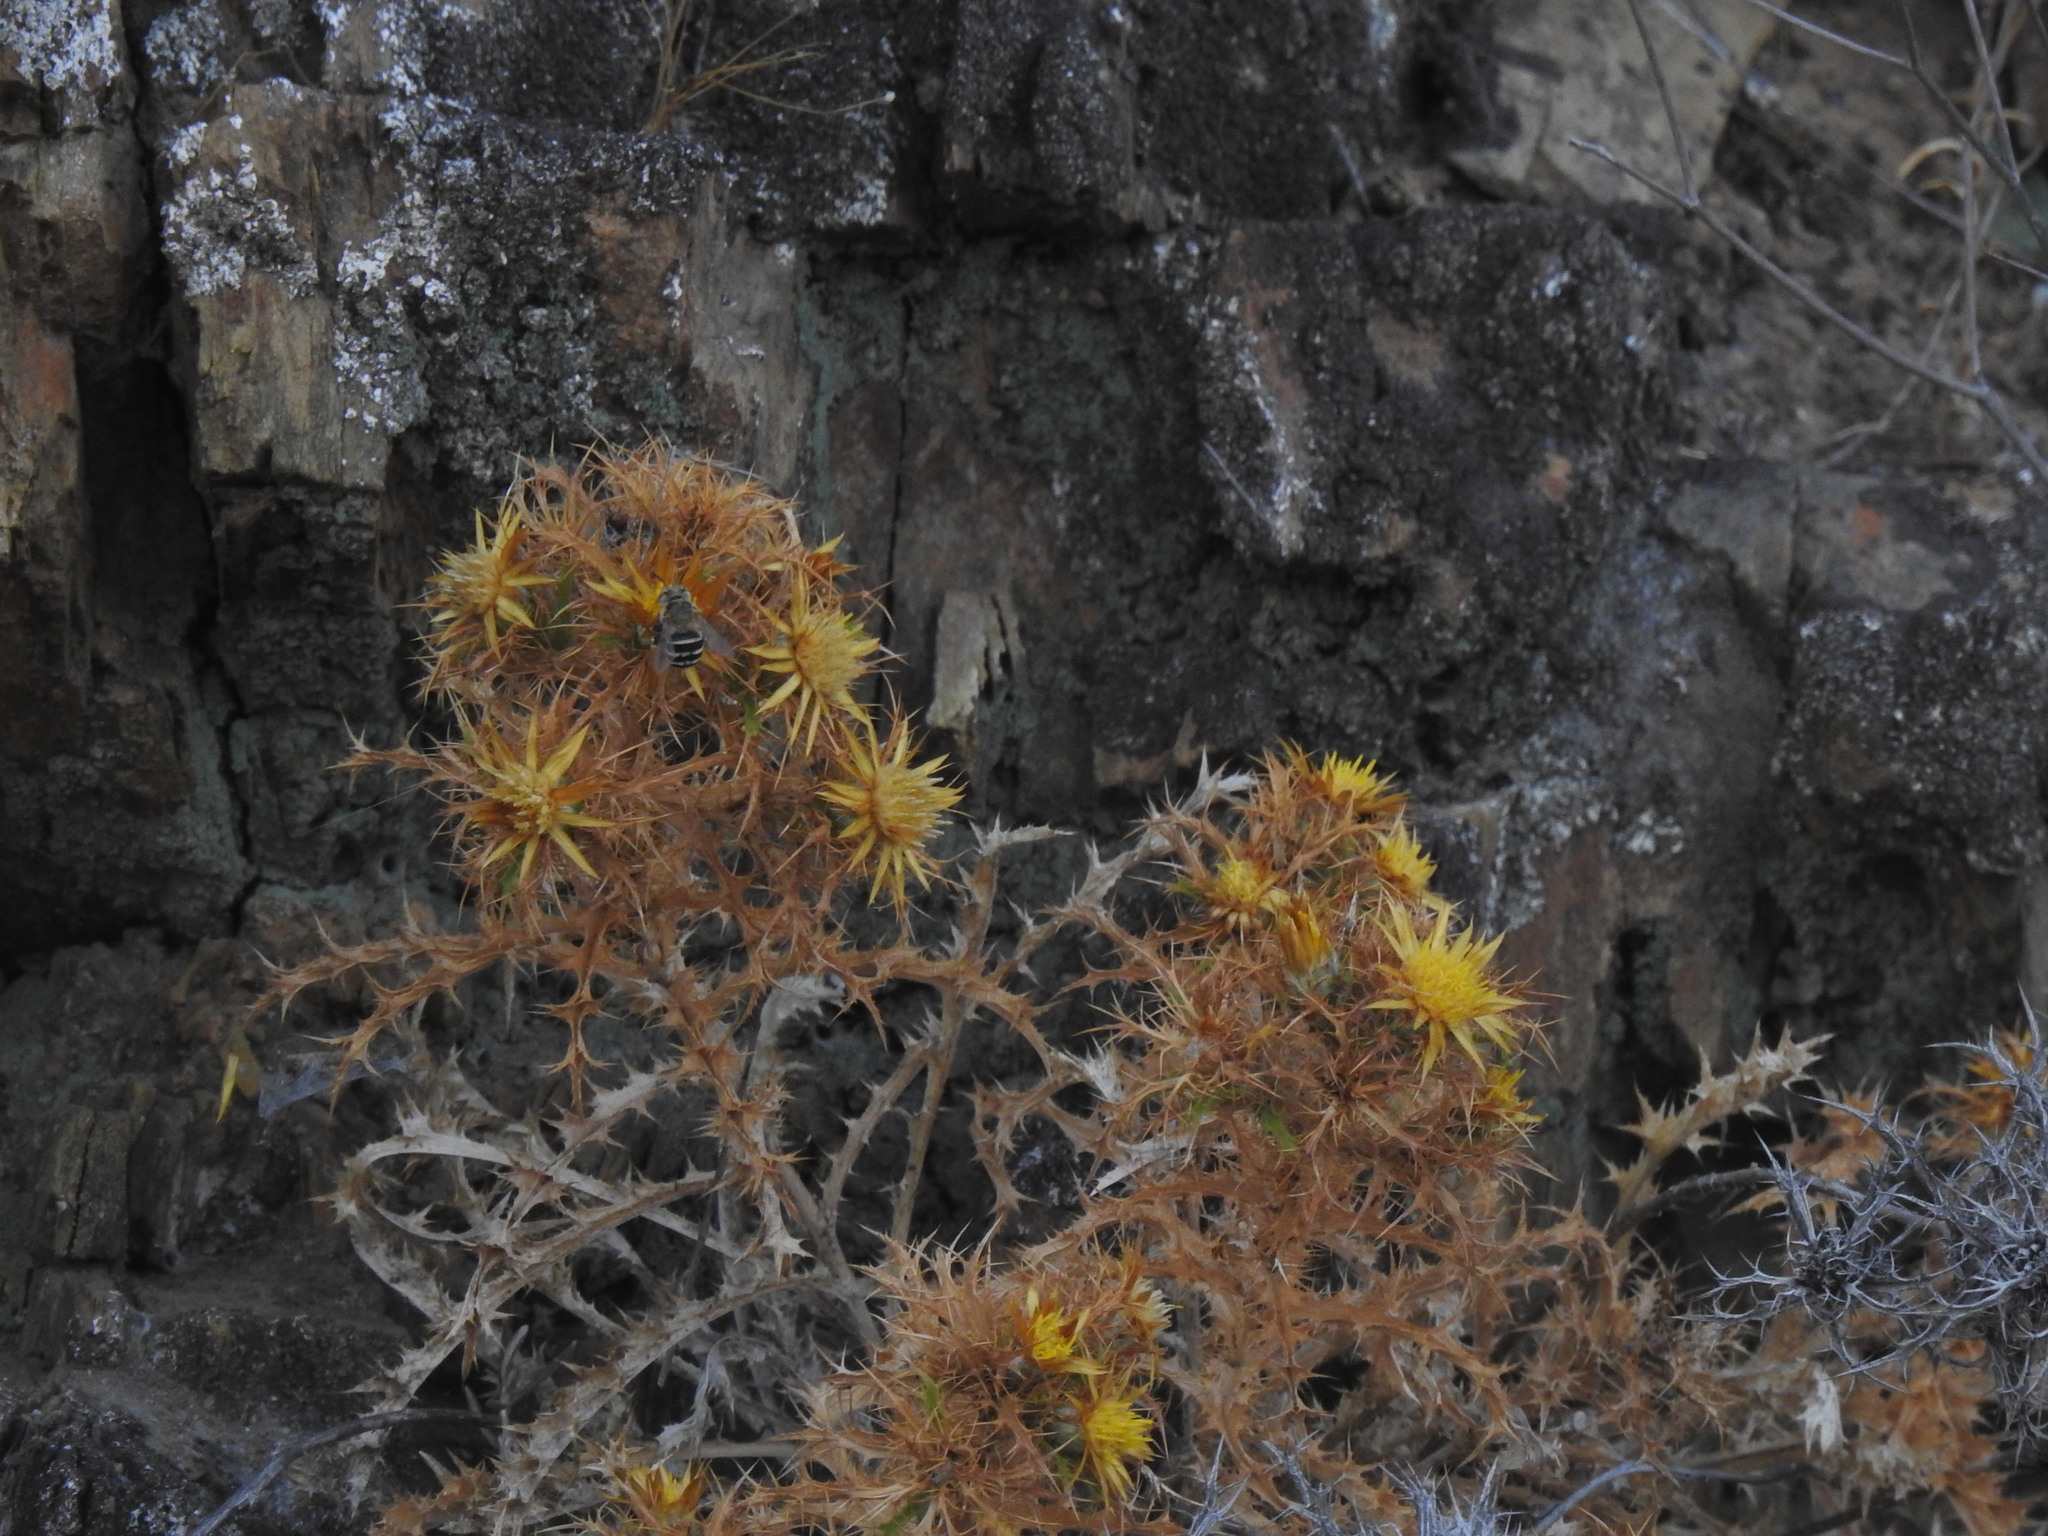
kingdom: Plantae
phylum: Tracheophyta
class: Magnoliopsida
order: Asterales
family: Asteraceae
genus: Carlina
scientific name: Carlina hispanica
